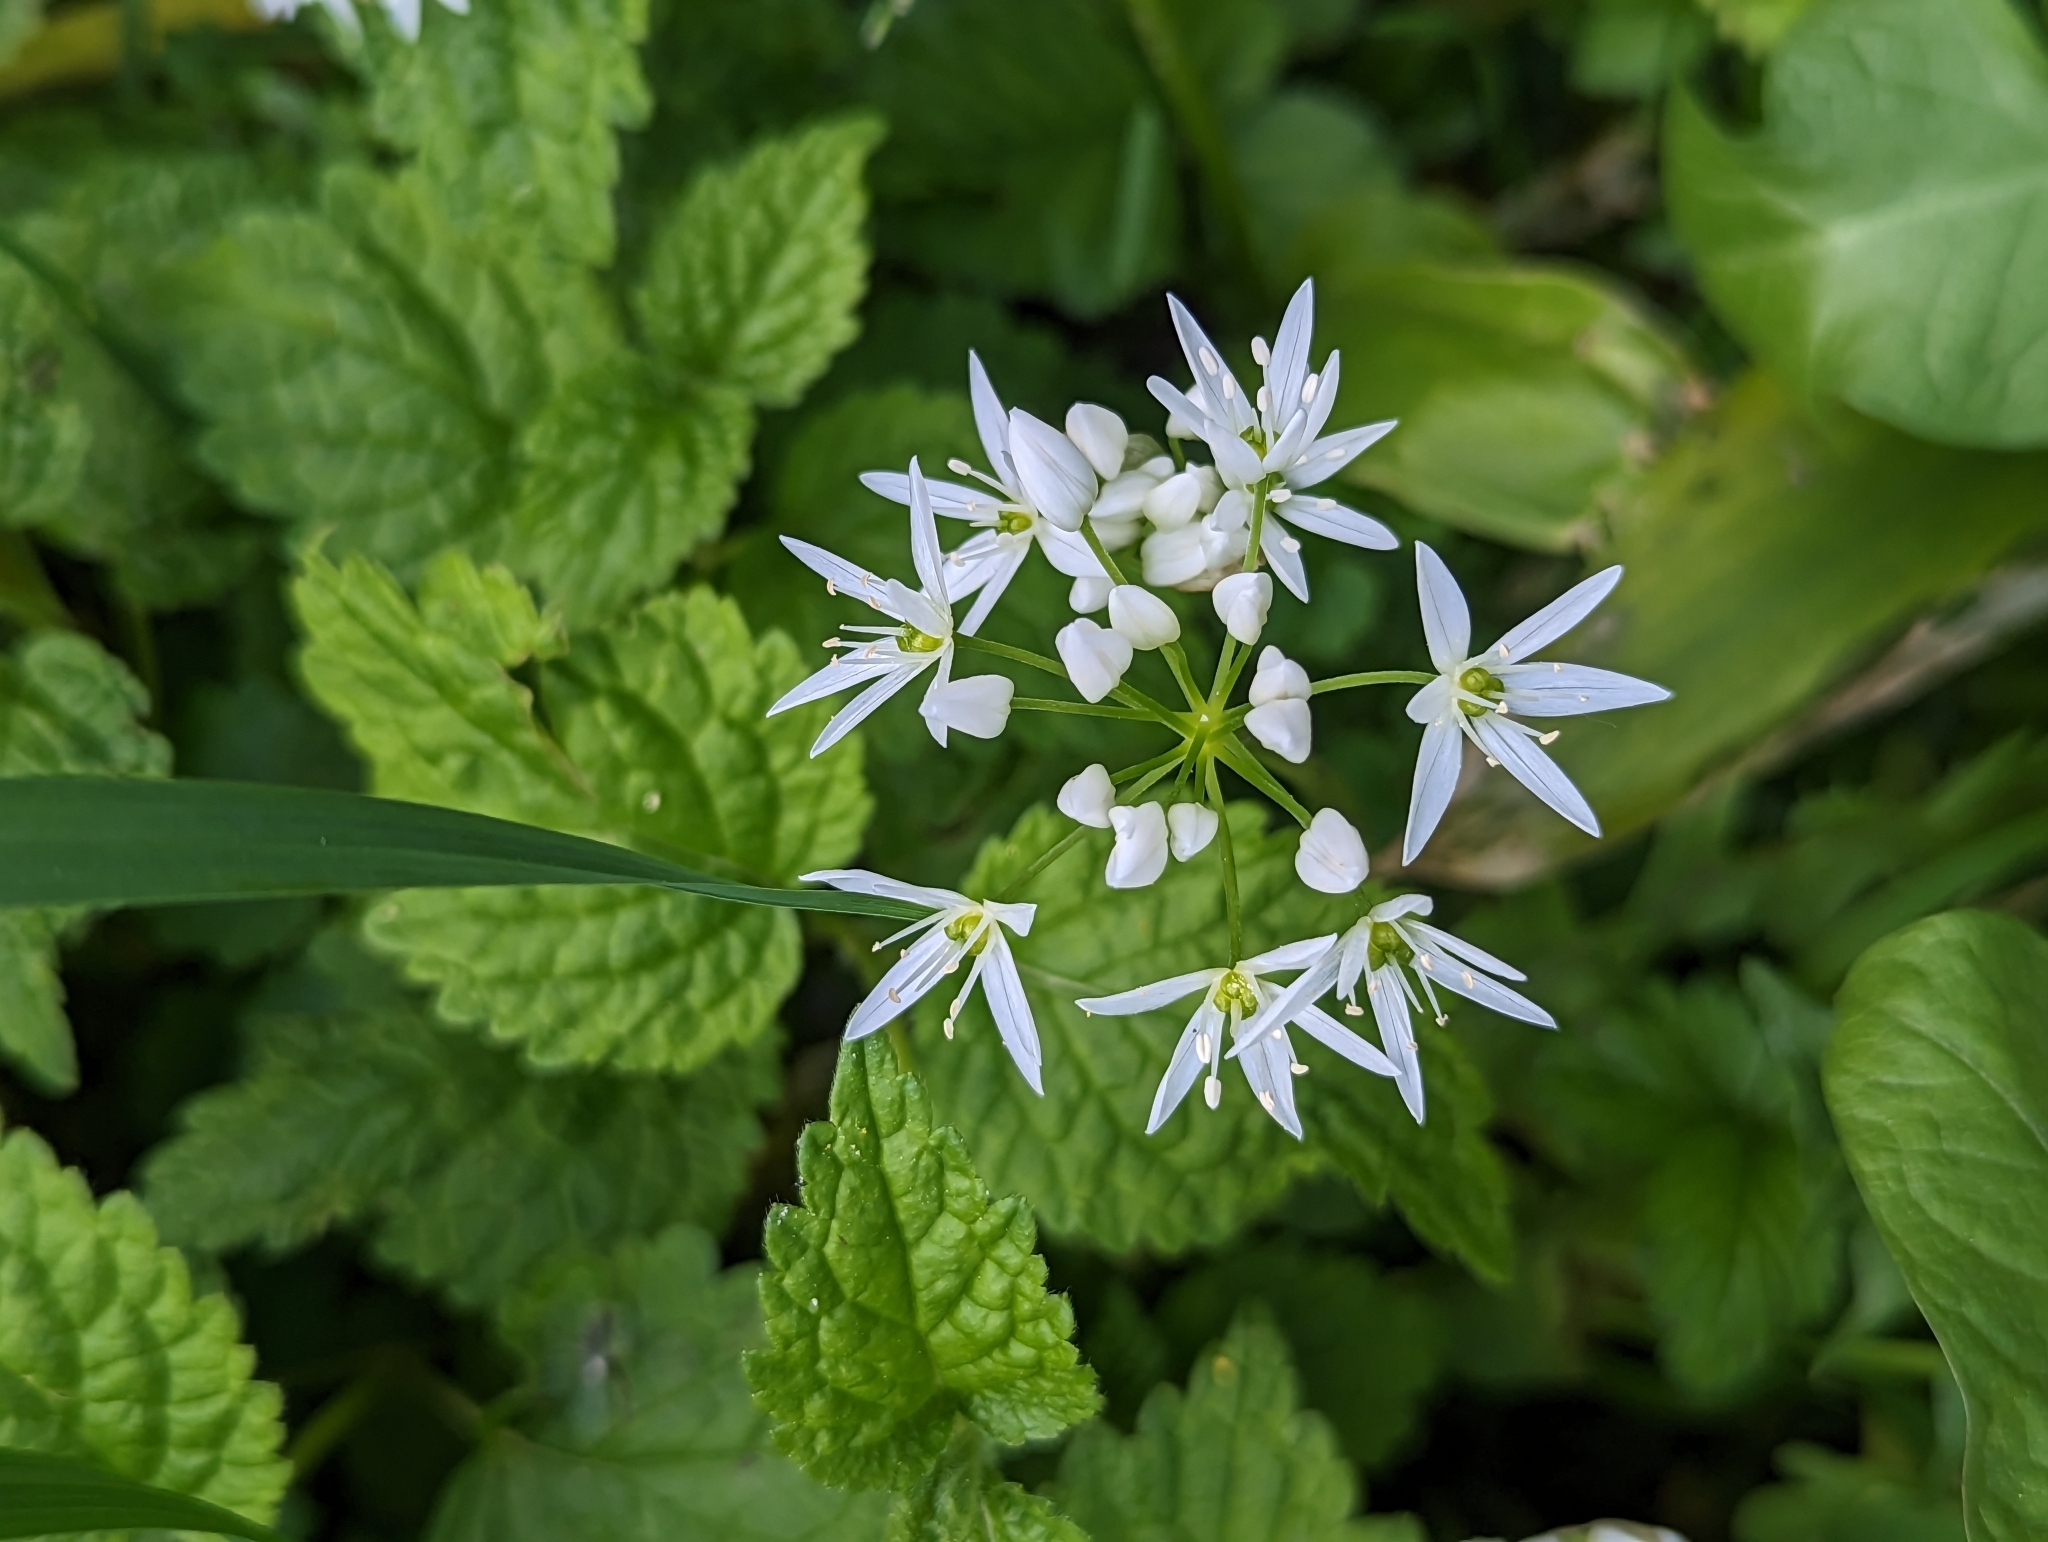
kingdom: Plantae
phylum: Tracheophyta
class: Liliopsida
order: Asparagales
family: Amaryllidaceae
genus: Allium
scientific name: Allium ursinum
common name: Ramsons
